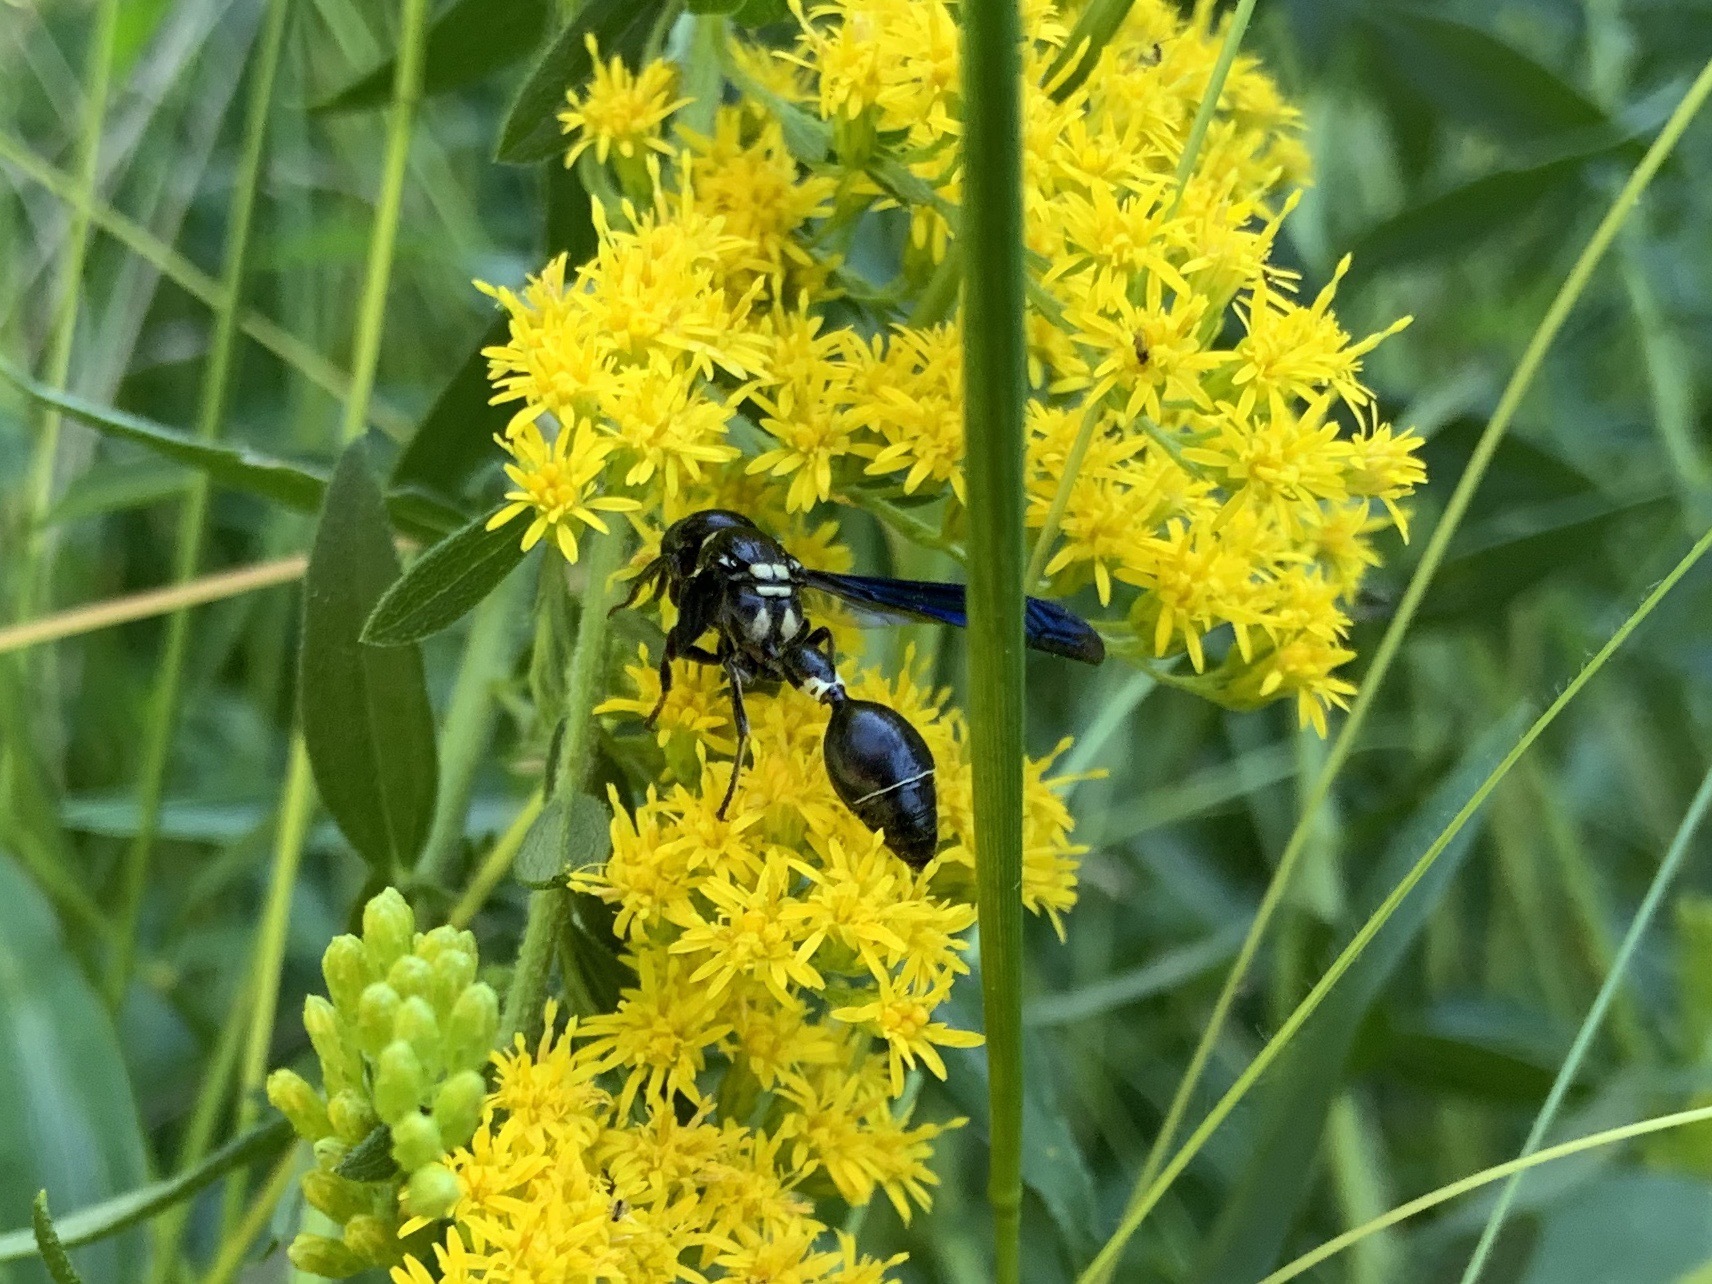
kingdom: Animalia
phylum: Arthropoda
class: Insecta
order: Hymenoptera
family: Eumenidae
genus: Zethus
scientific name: Zethus spinipes
